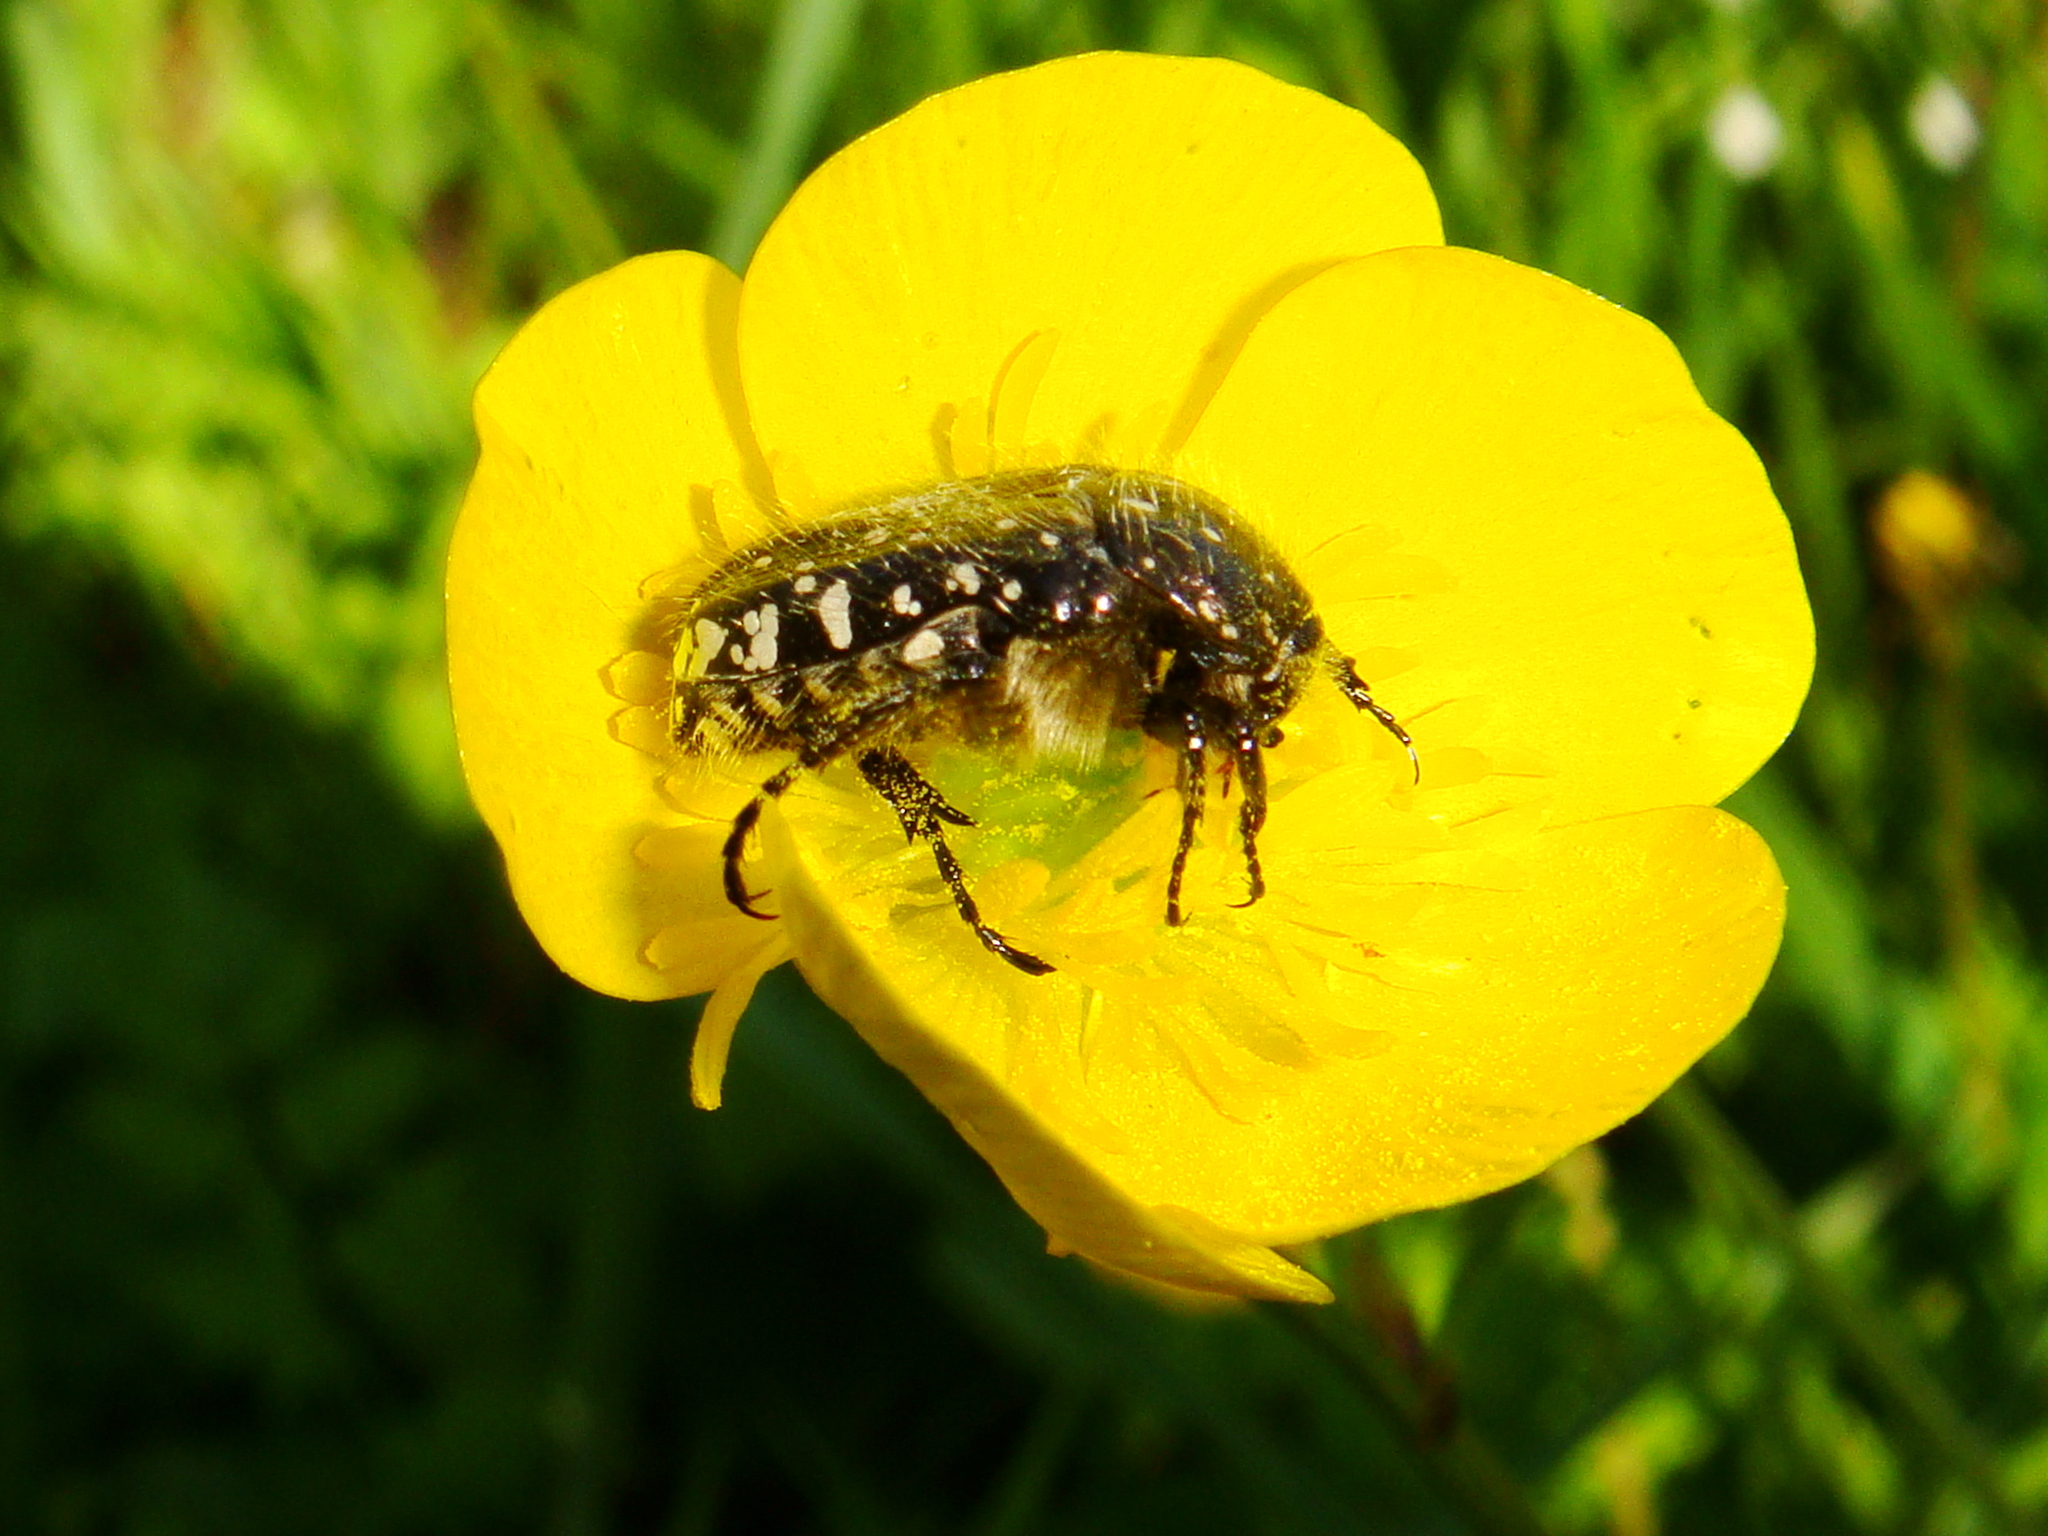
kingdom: Animalia
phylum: Arthropoda
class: Insecta
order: Coleoptera
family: Scarabaeidae
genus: Oxythyrea
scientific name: Oxythyrea funesta
